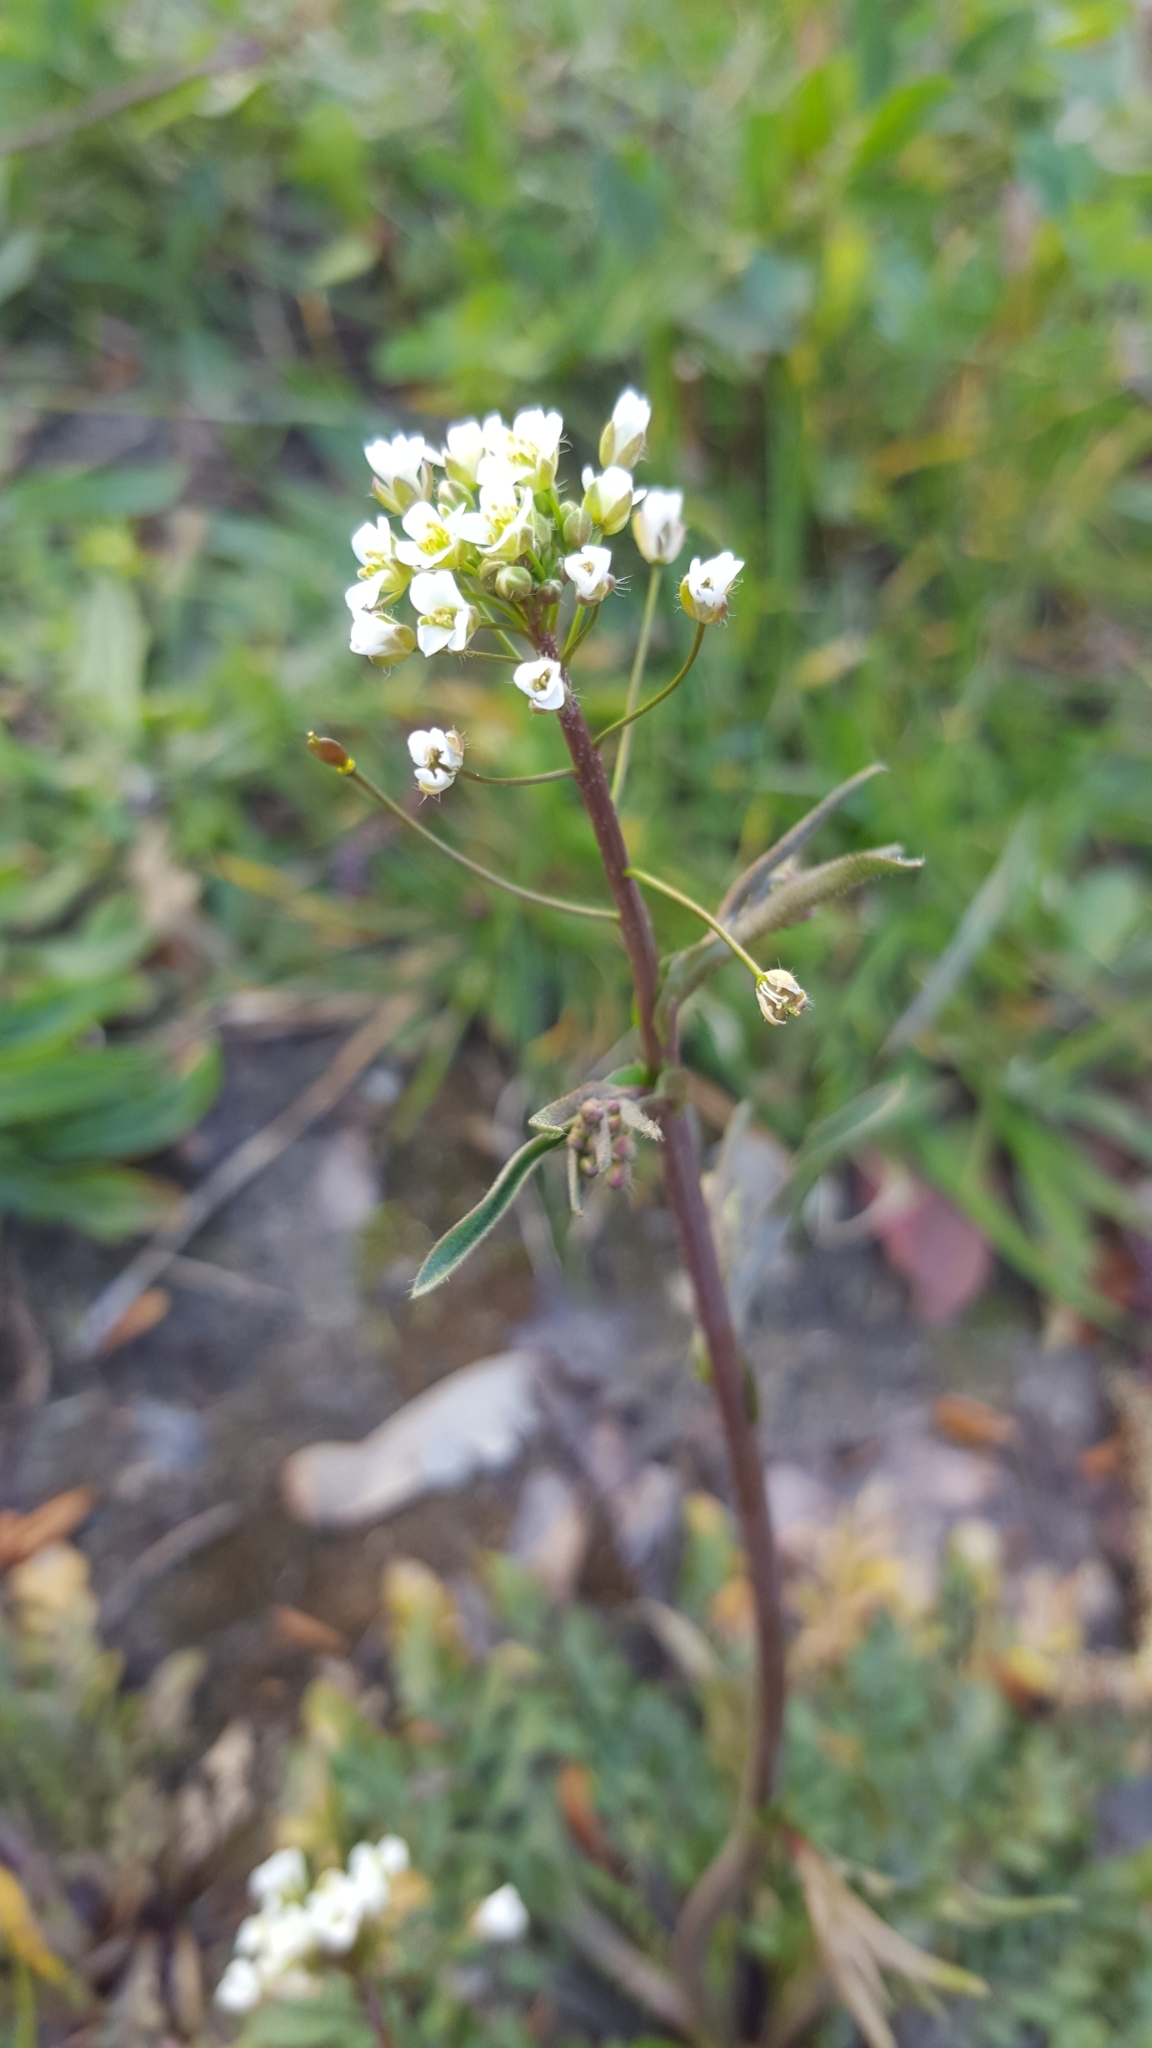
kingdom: Plantae
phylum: Tracheophyta
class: Magnoliopsida
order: Brassicales
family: Brassicaceae
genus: Capsella
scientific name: Capsella bursa-pastoris
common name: Shepherd's purse
